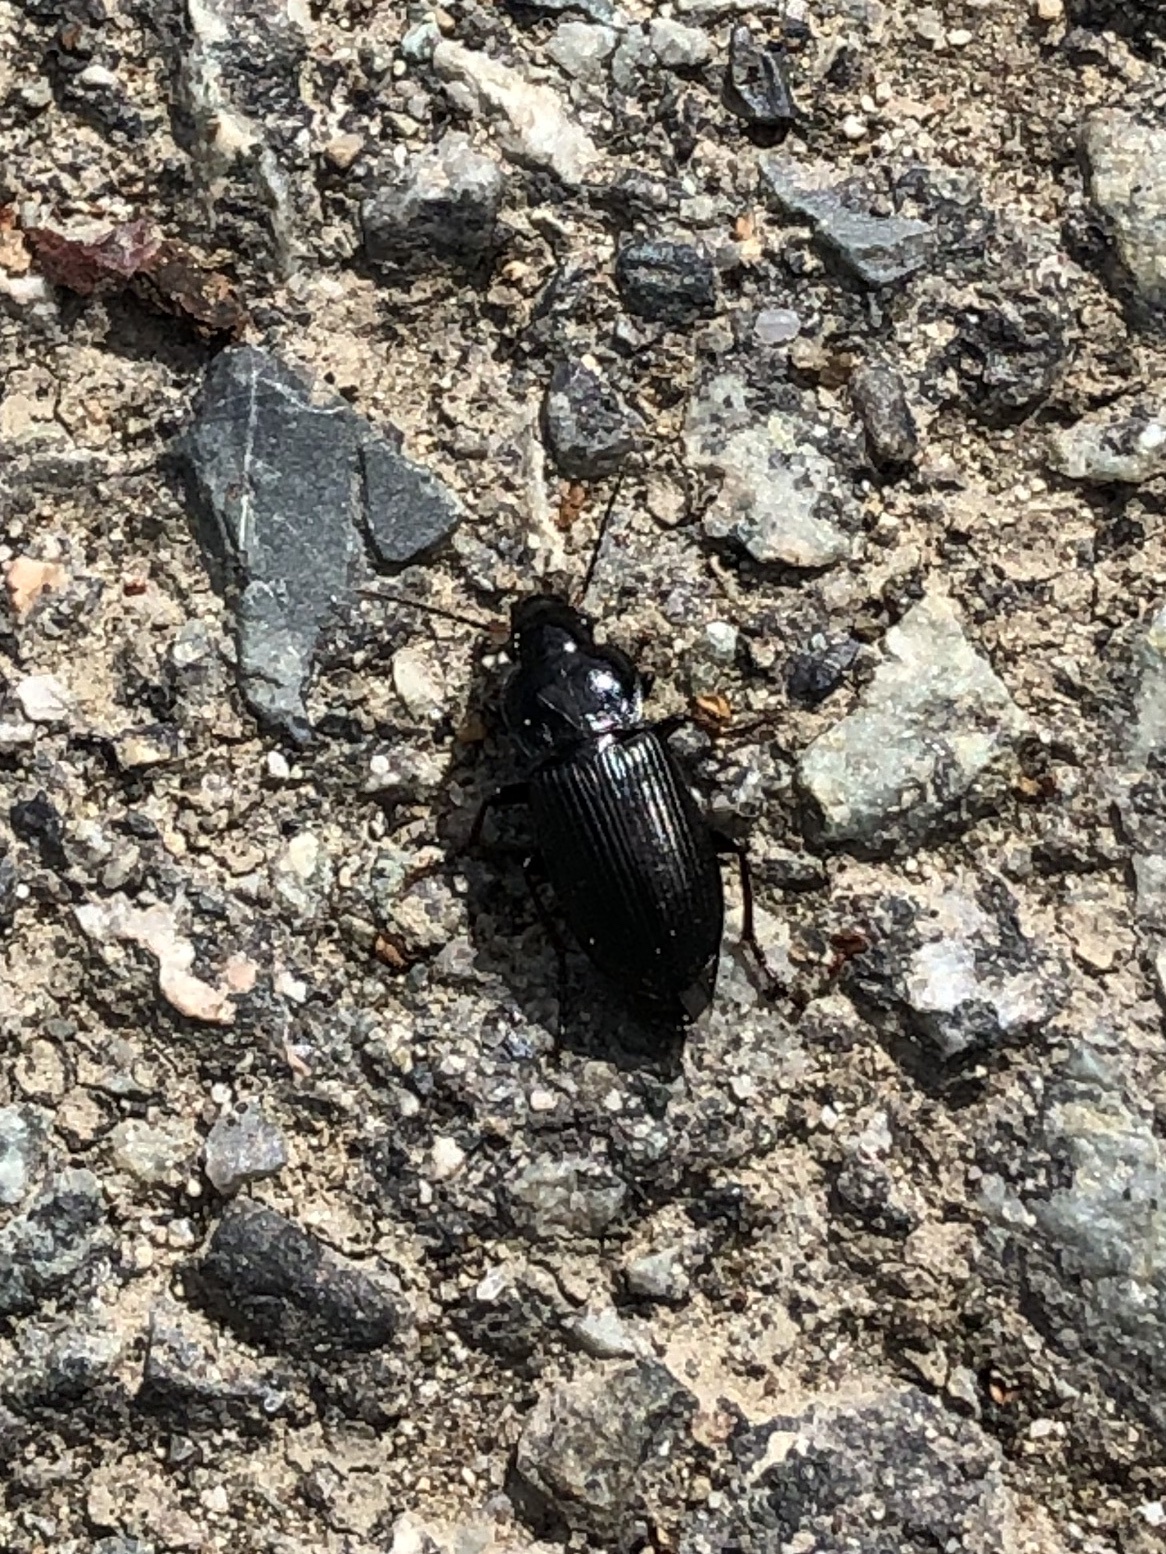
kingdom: Animalia
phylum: Arthropoda
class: Insecta
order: Coleoptera
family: Carabidae
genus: Nebria
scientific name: Nebria brevicollis
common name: Short-necked gazelle beetle
